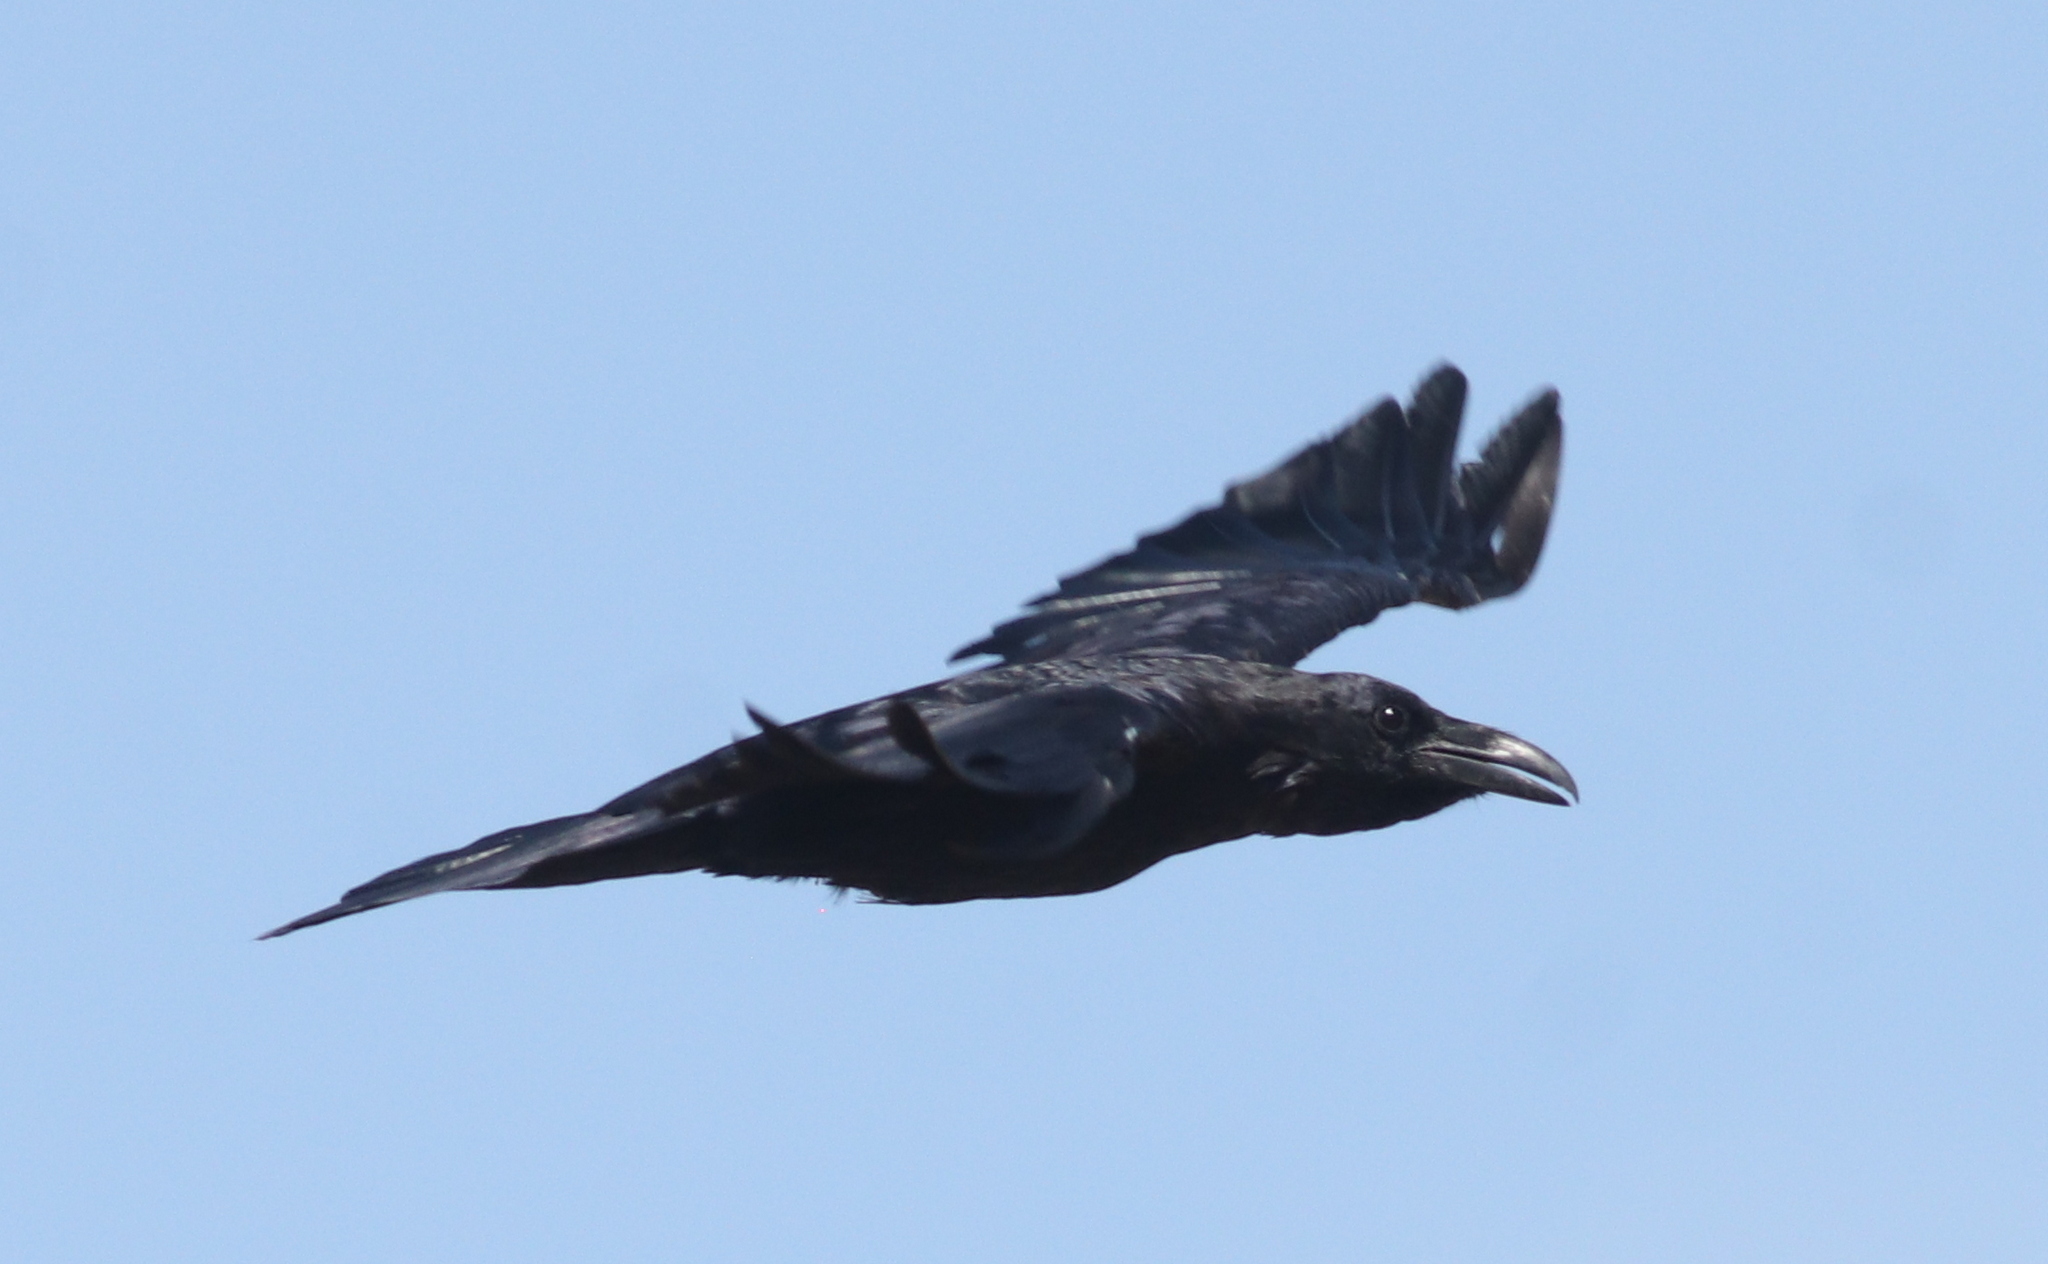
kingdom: Animalia
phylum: Chordata
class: Aves
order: Passeriformes
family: Corvidae
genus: Corvus
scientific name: Corvus corax
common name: Common raven
